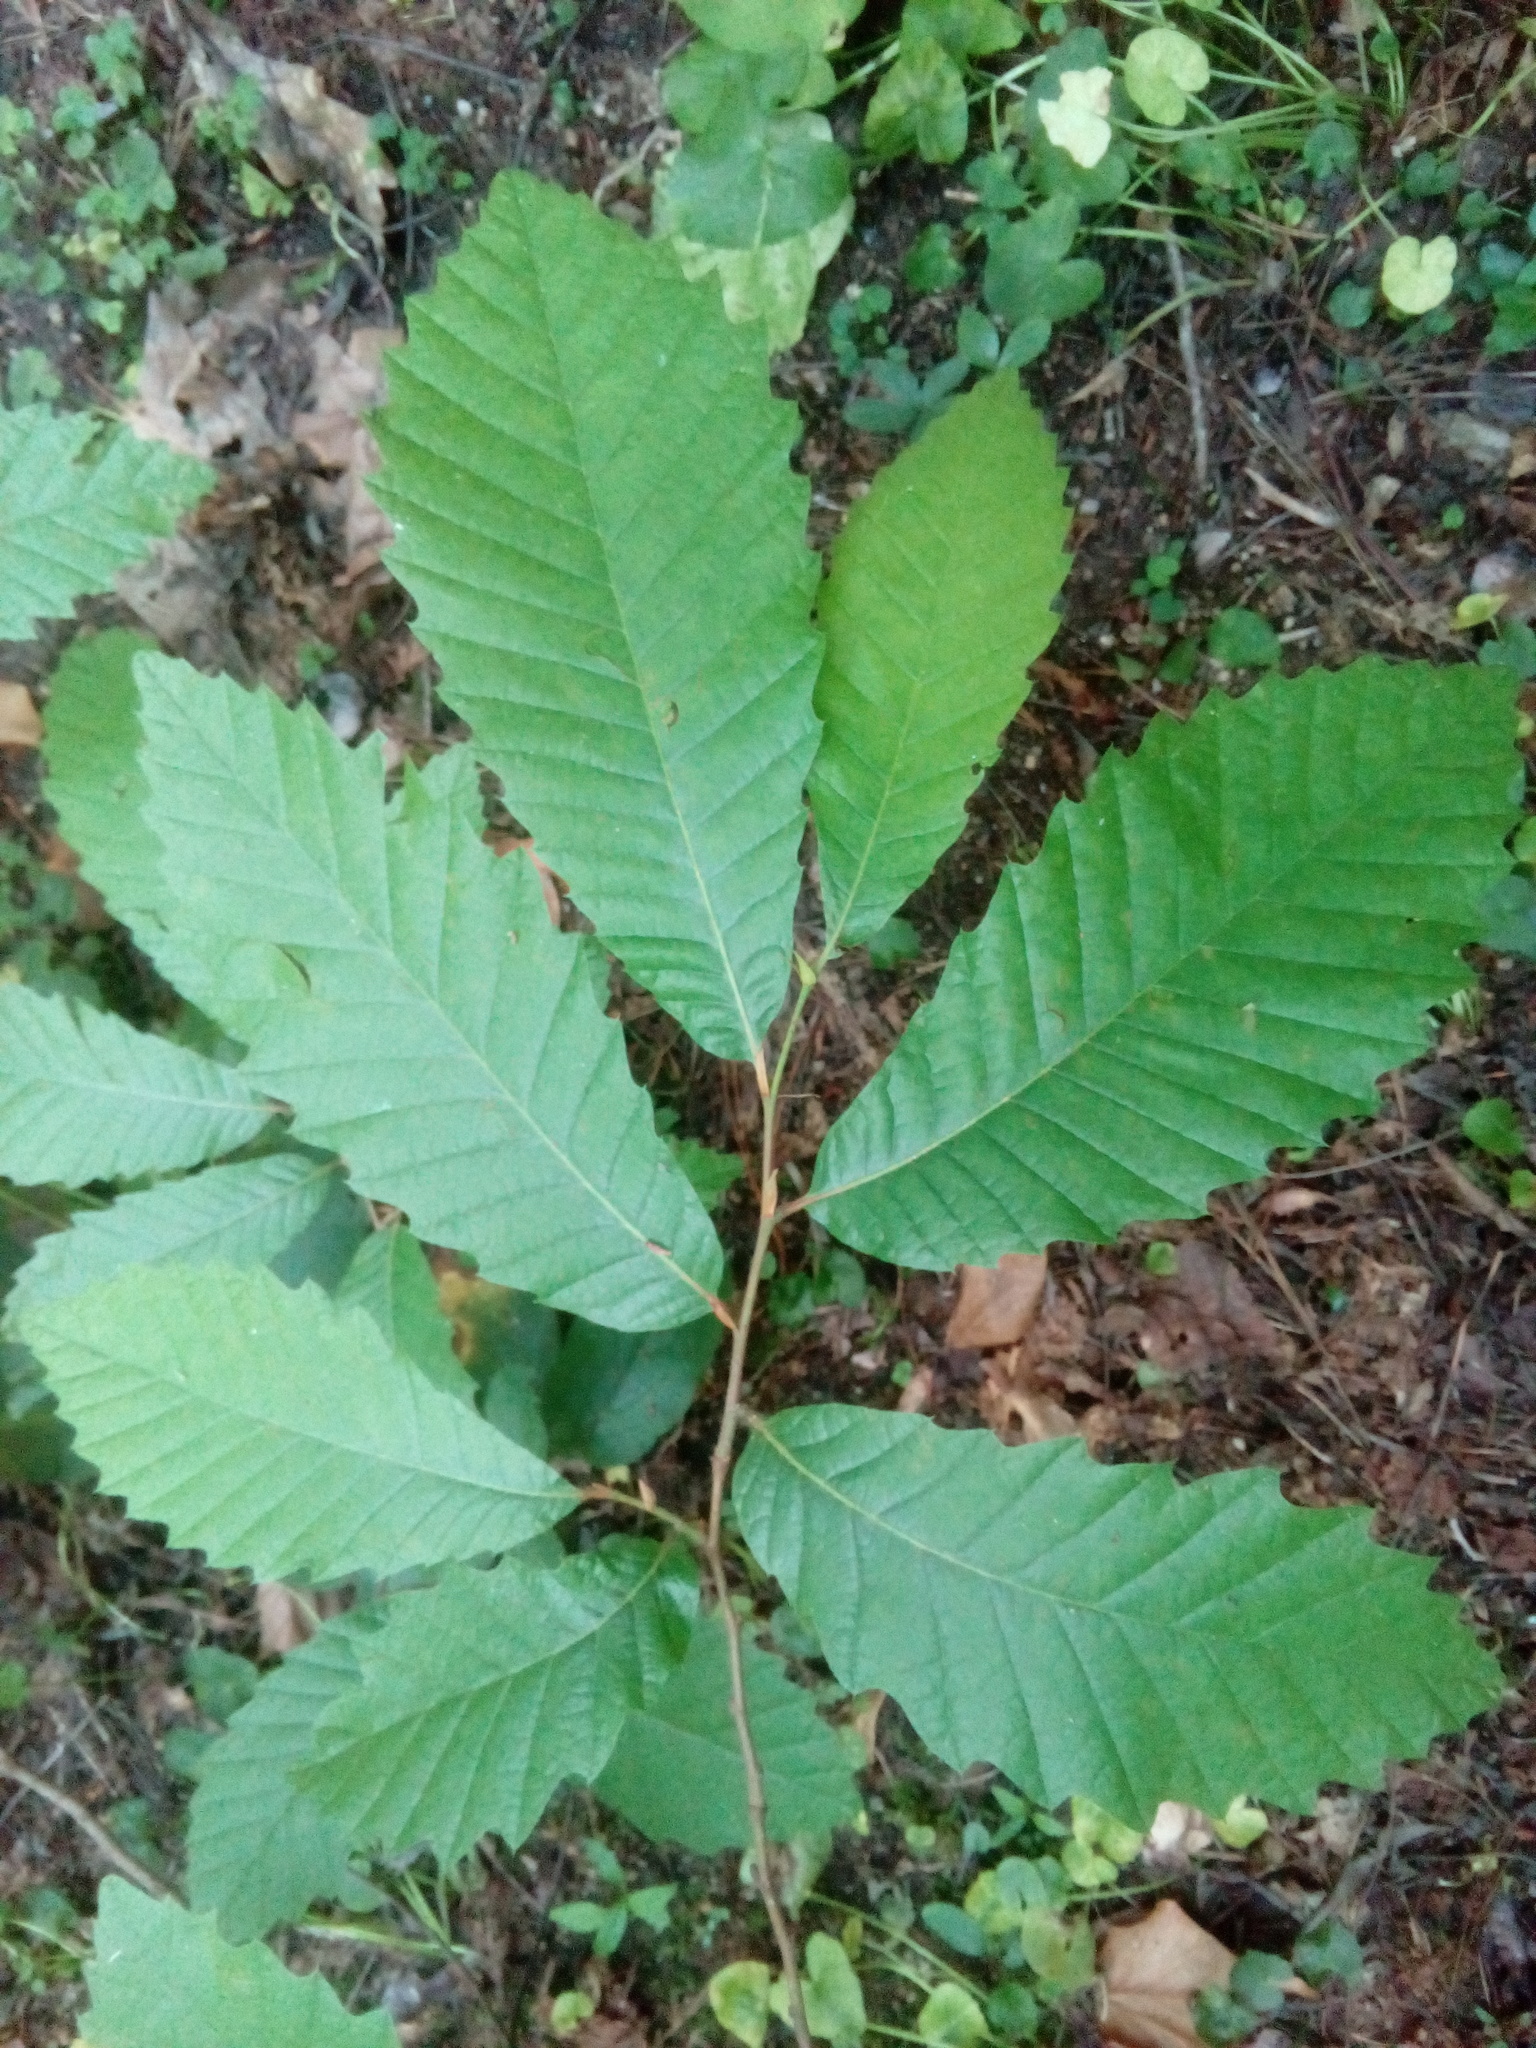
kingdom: Plantae
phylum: Tracheophyta
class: Magnoliopsida
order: Fagales
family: Fagaceae
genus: Castanea
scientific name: Castanea sativa
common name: Sweet chestnut
